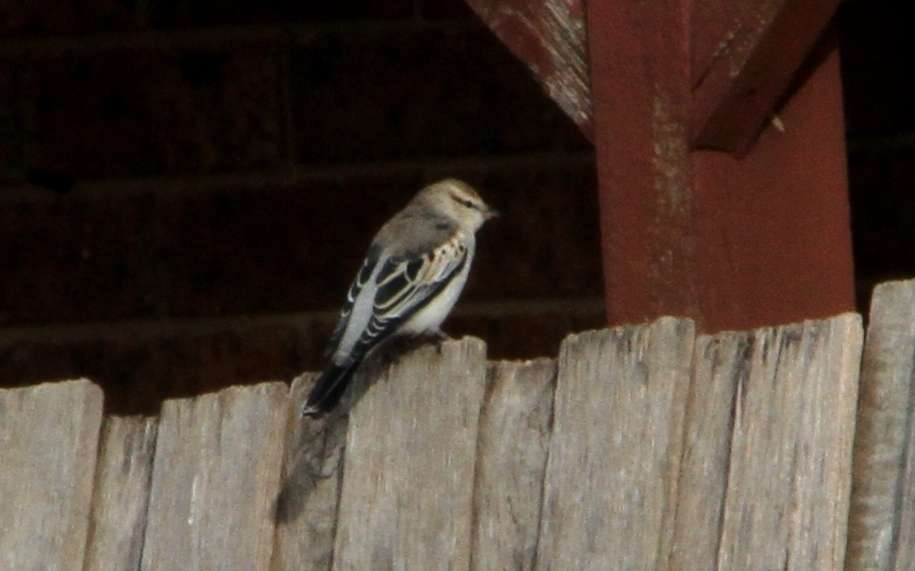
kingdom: Animalia
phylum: Chordata
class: Aves
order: Passeriformes
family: Campephagidae
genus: Lalage
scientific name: Lalage tricolor
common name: White-winged triller
